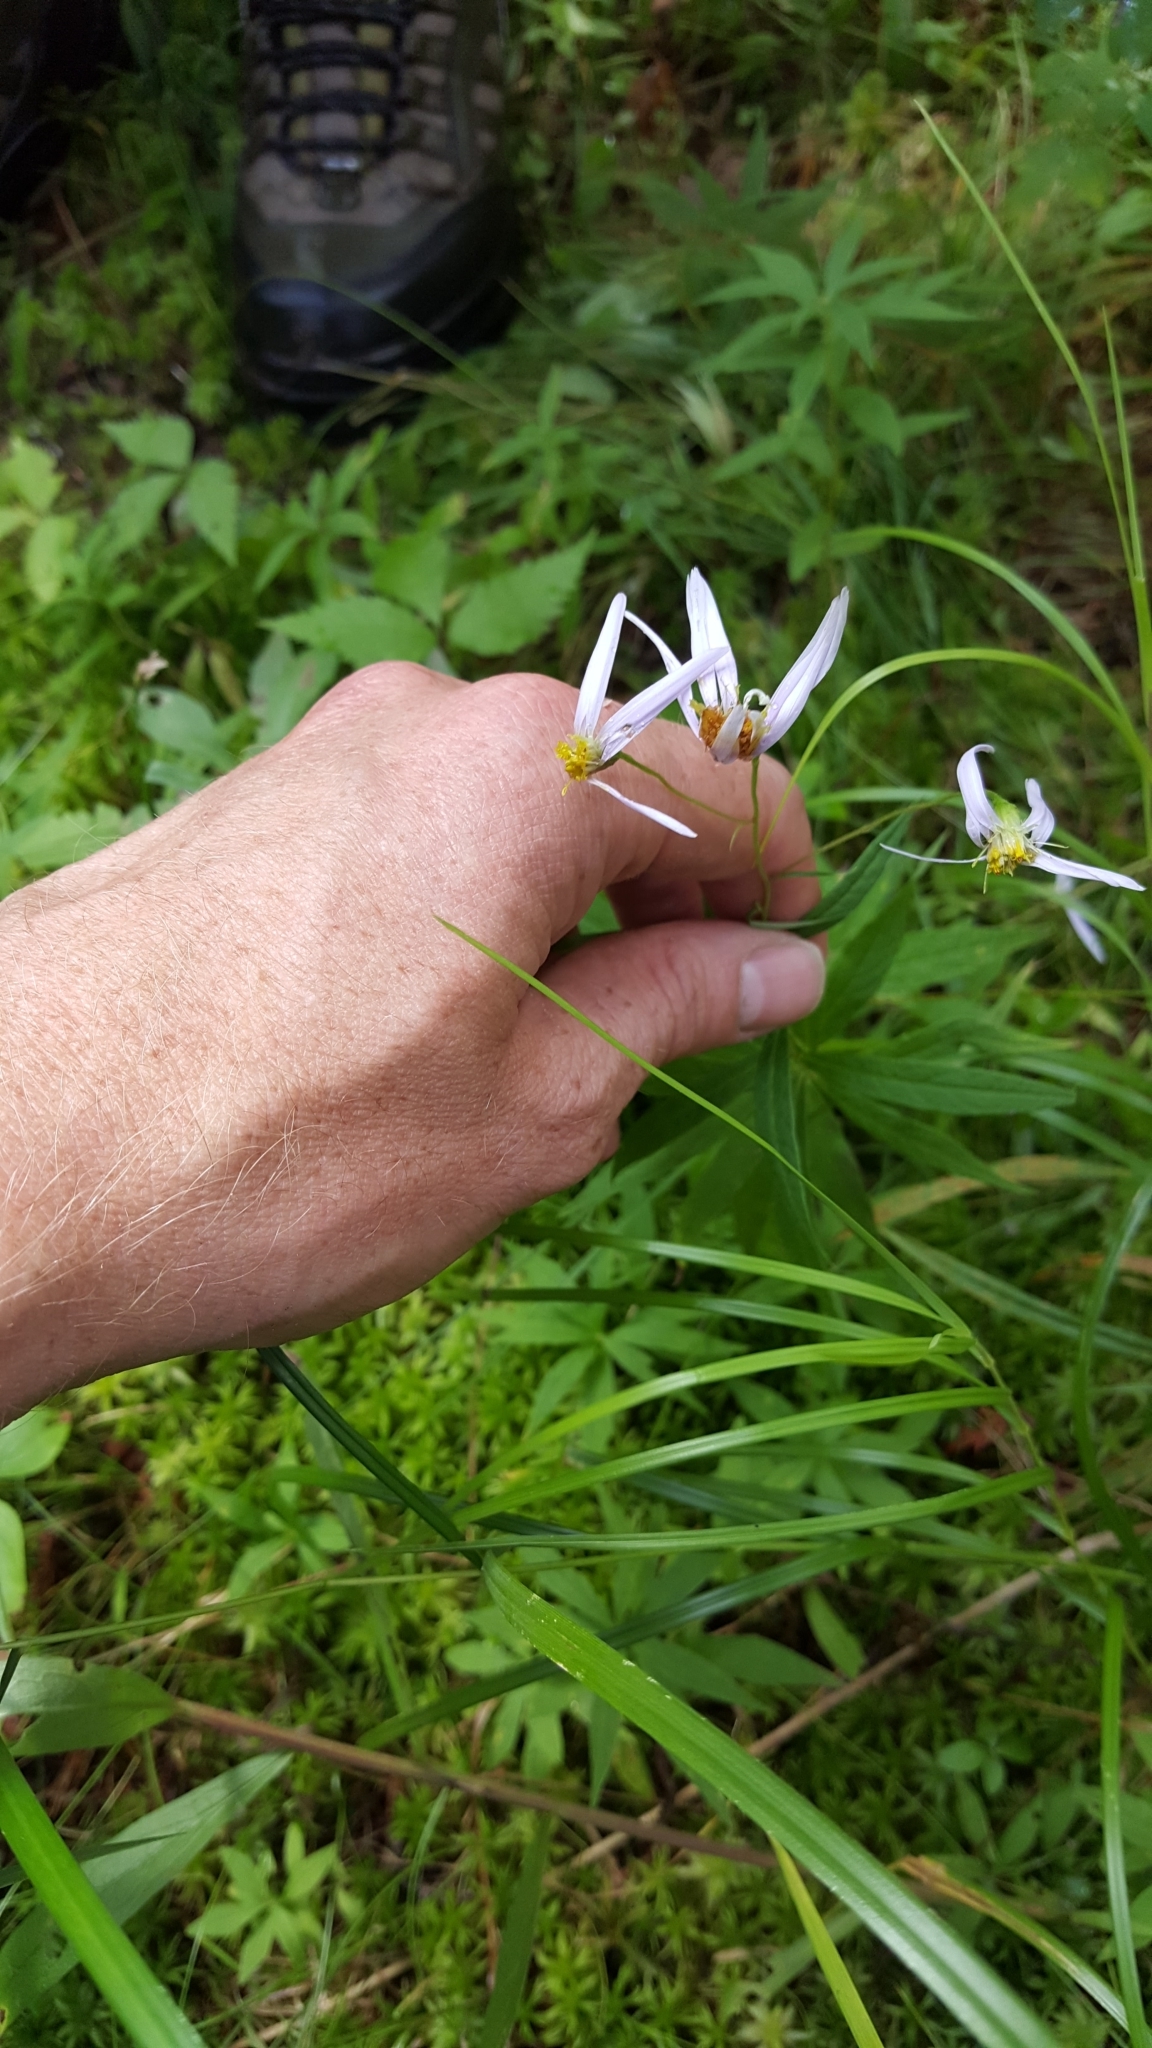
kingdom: Plantae
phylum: Tracheophyta
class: Magnoliopsida
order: Asterales
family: Asteraceae
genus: Oclemena
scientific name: Oclemena nemoralis
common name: Bog aster
